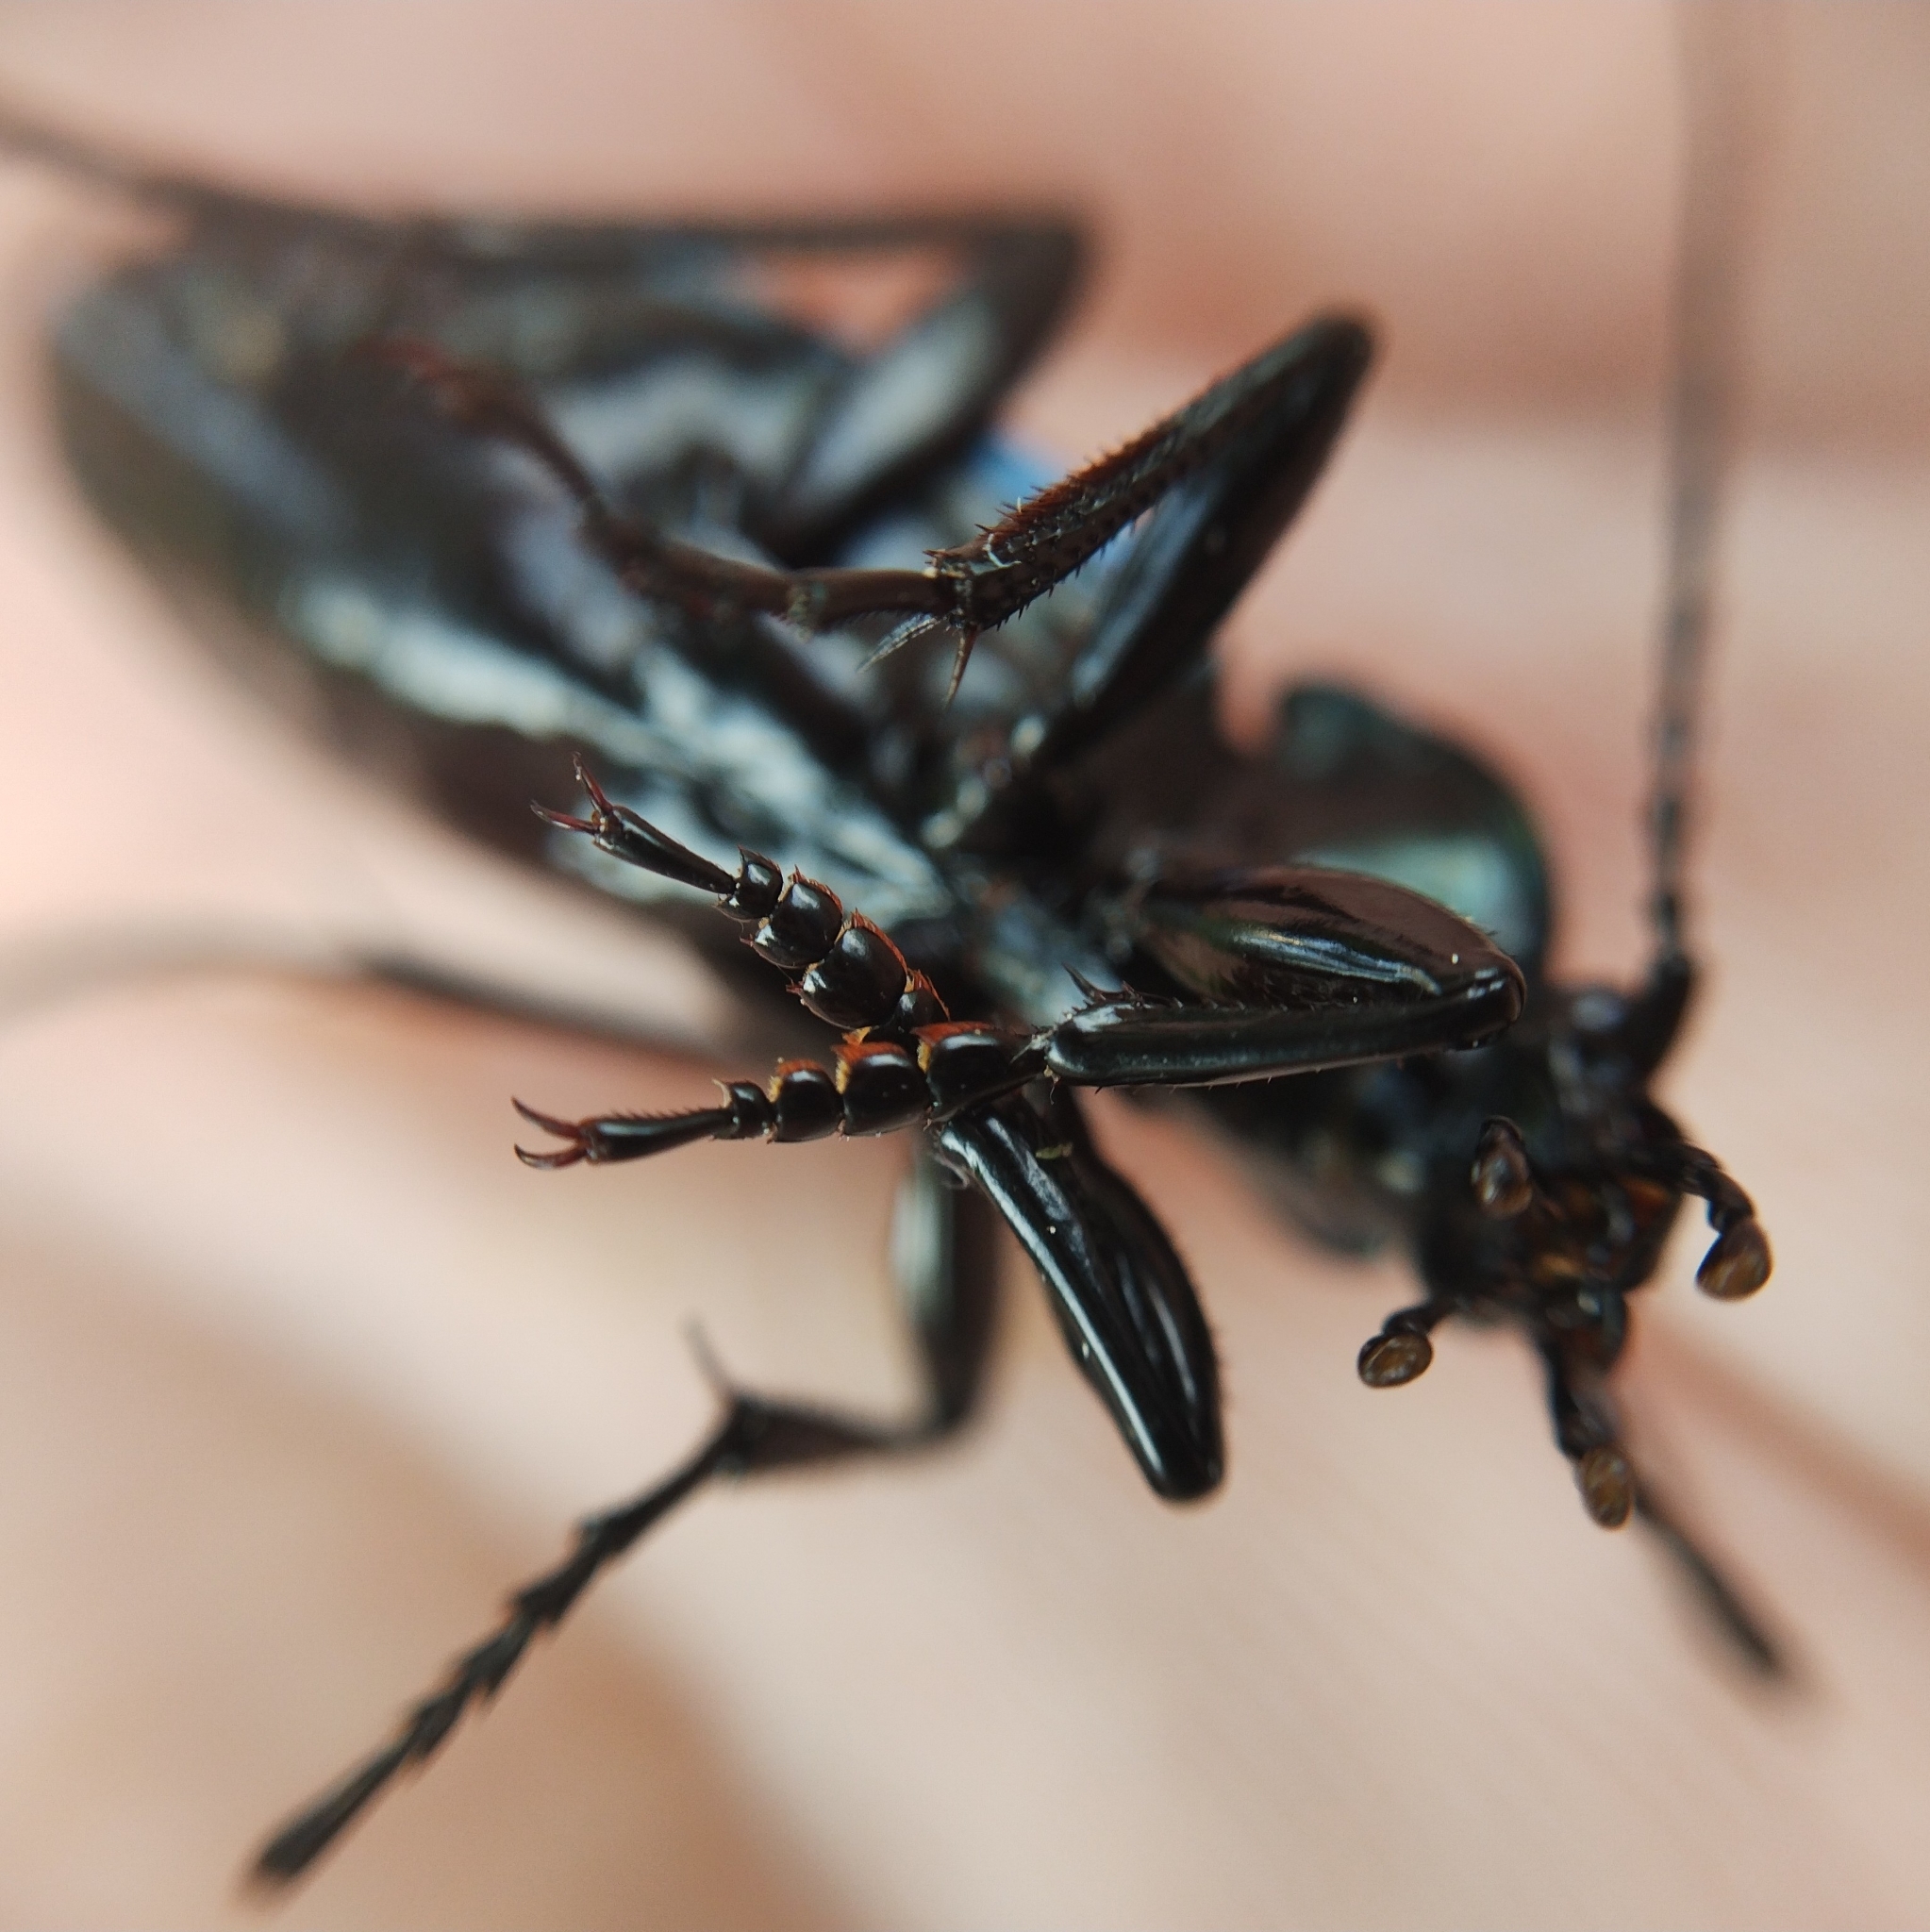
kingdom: Animalia
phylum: Arthropoda
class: Insecta
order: Coleoptera
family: Carabidae
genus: Carabus
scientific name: Carabus violaceus
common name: Violet ground beetle
